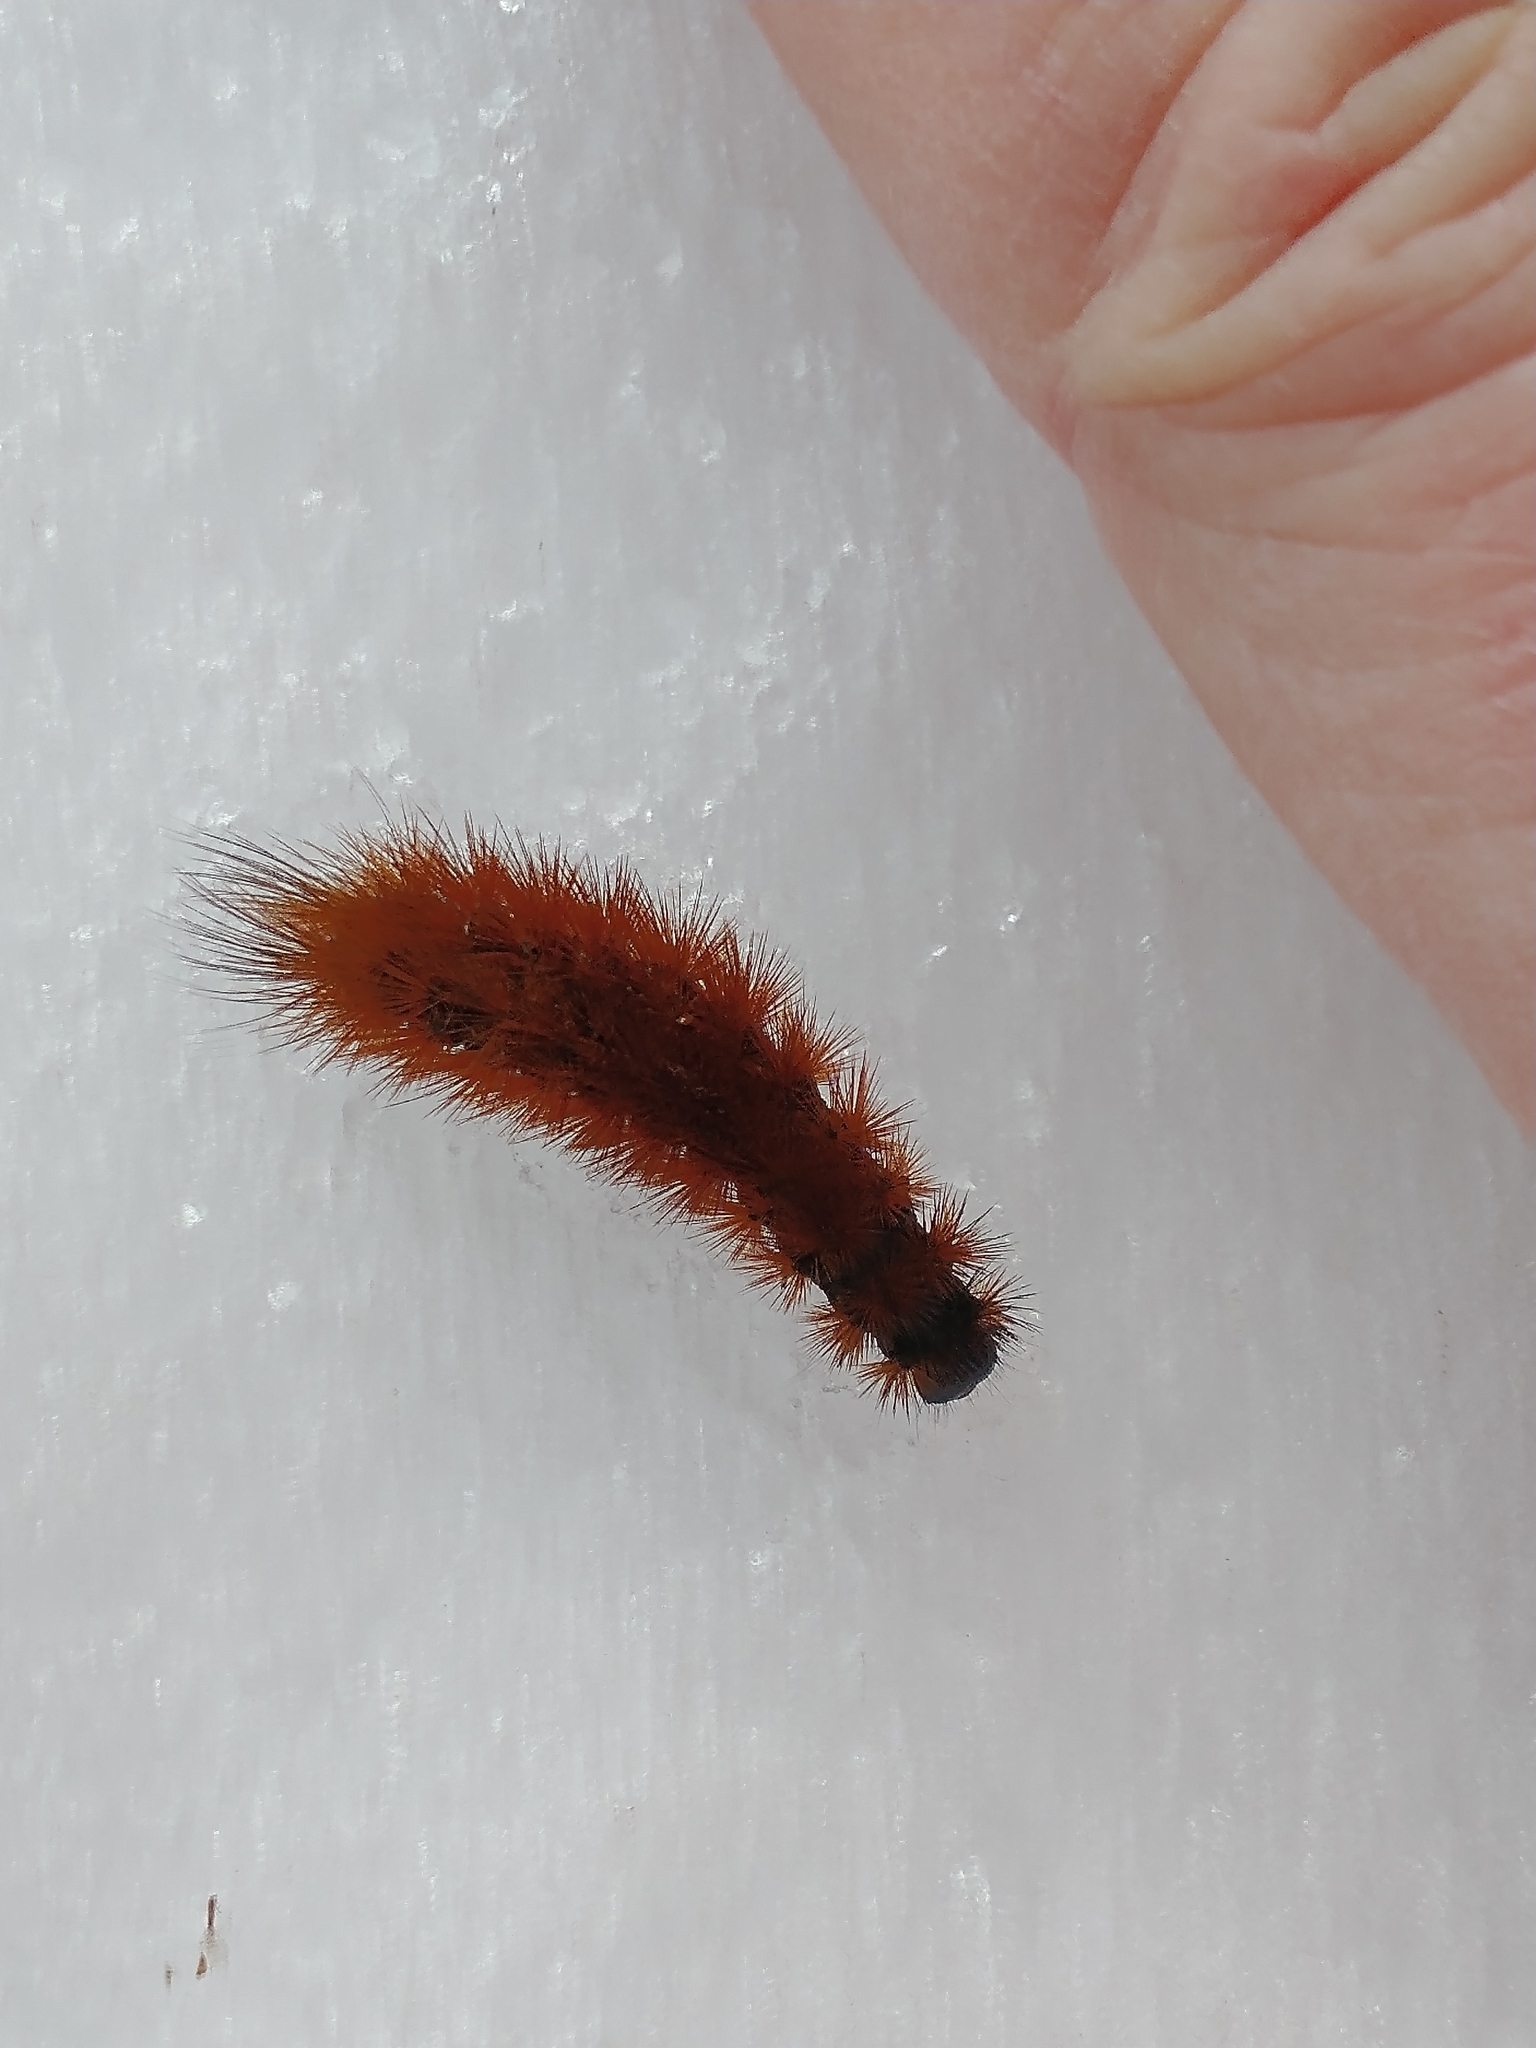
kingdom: Animalia
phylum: Arthropoda
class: Insecta
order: Lepidoptera
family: Erebidae
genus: Phragmatobia
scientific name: Phragmatobia fuliginosa
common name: Ruby tiger
